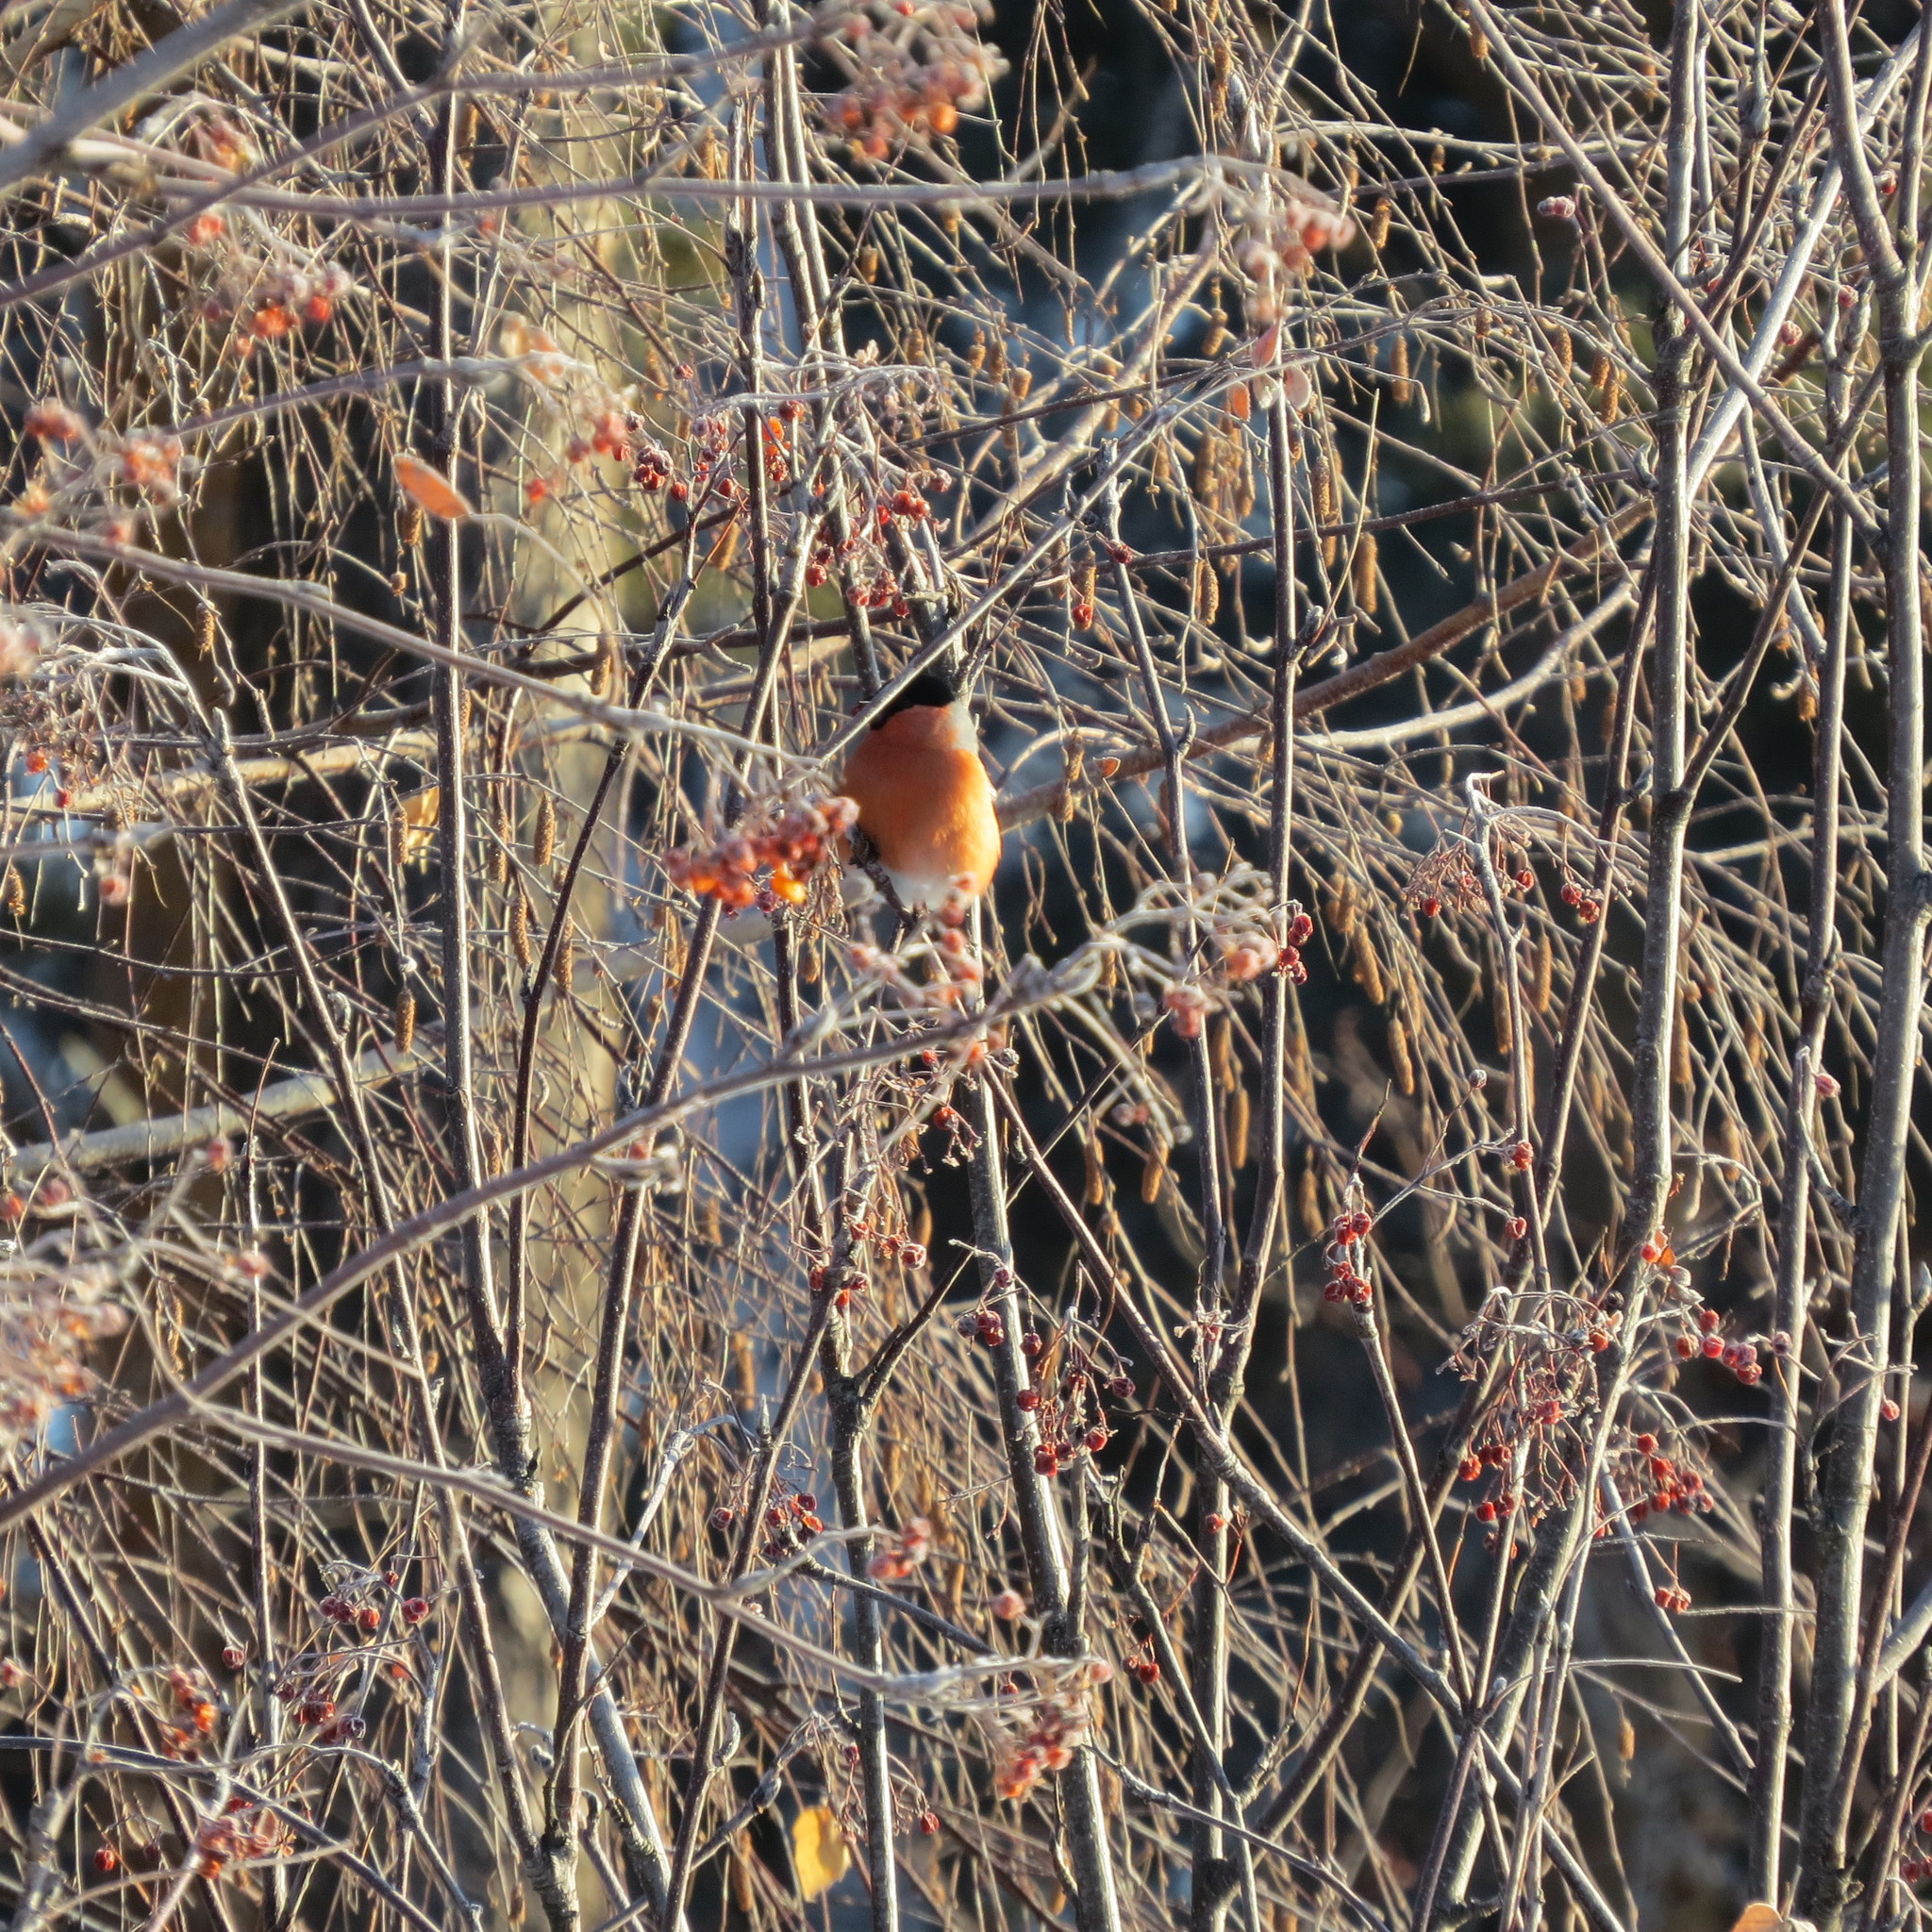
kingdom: Animalia
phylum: Chordata
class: Aves
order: Passeriformes
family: Fringillidae
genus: Pyrrhula
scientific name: Pyrrhula pyrrhula
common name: Eurasian bullfinch
